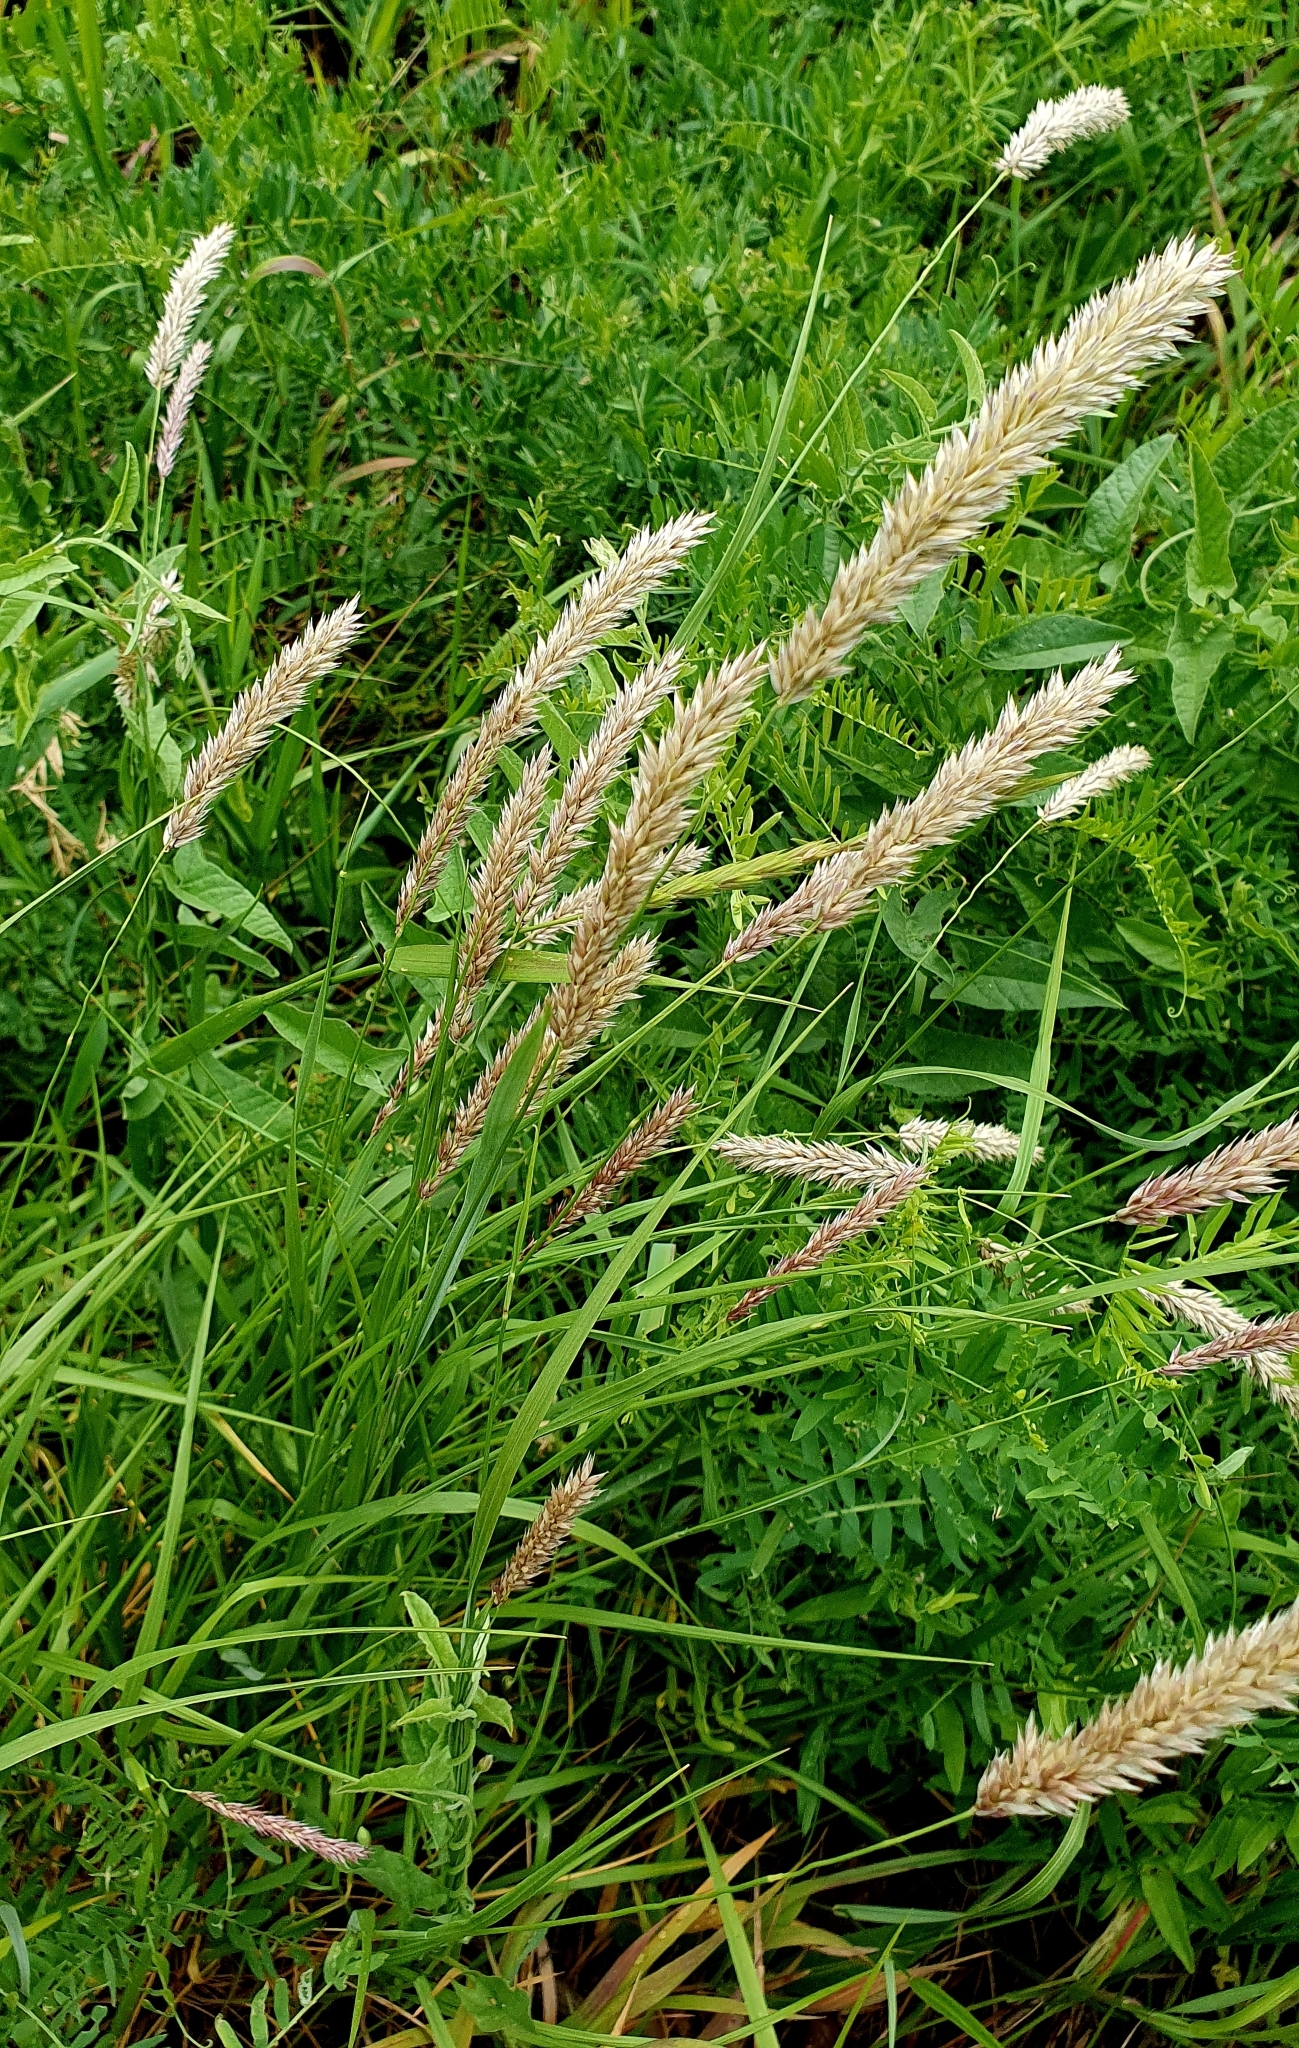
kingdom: Plantae
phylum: Tracheophyta
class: Liliopsida
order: Poales
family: Poaceae
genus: Melica
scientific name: Melica transsilvanica
